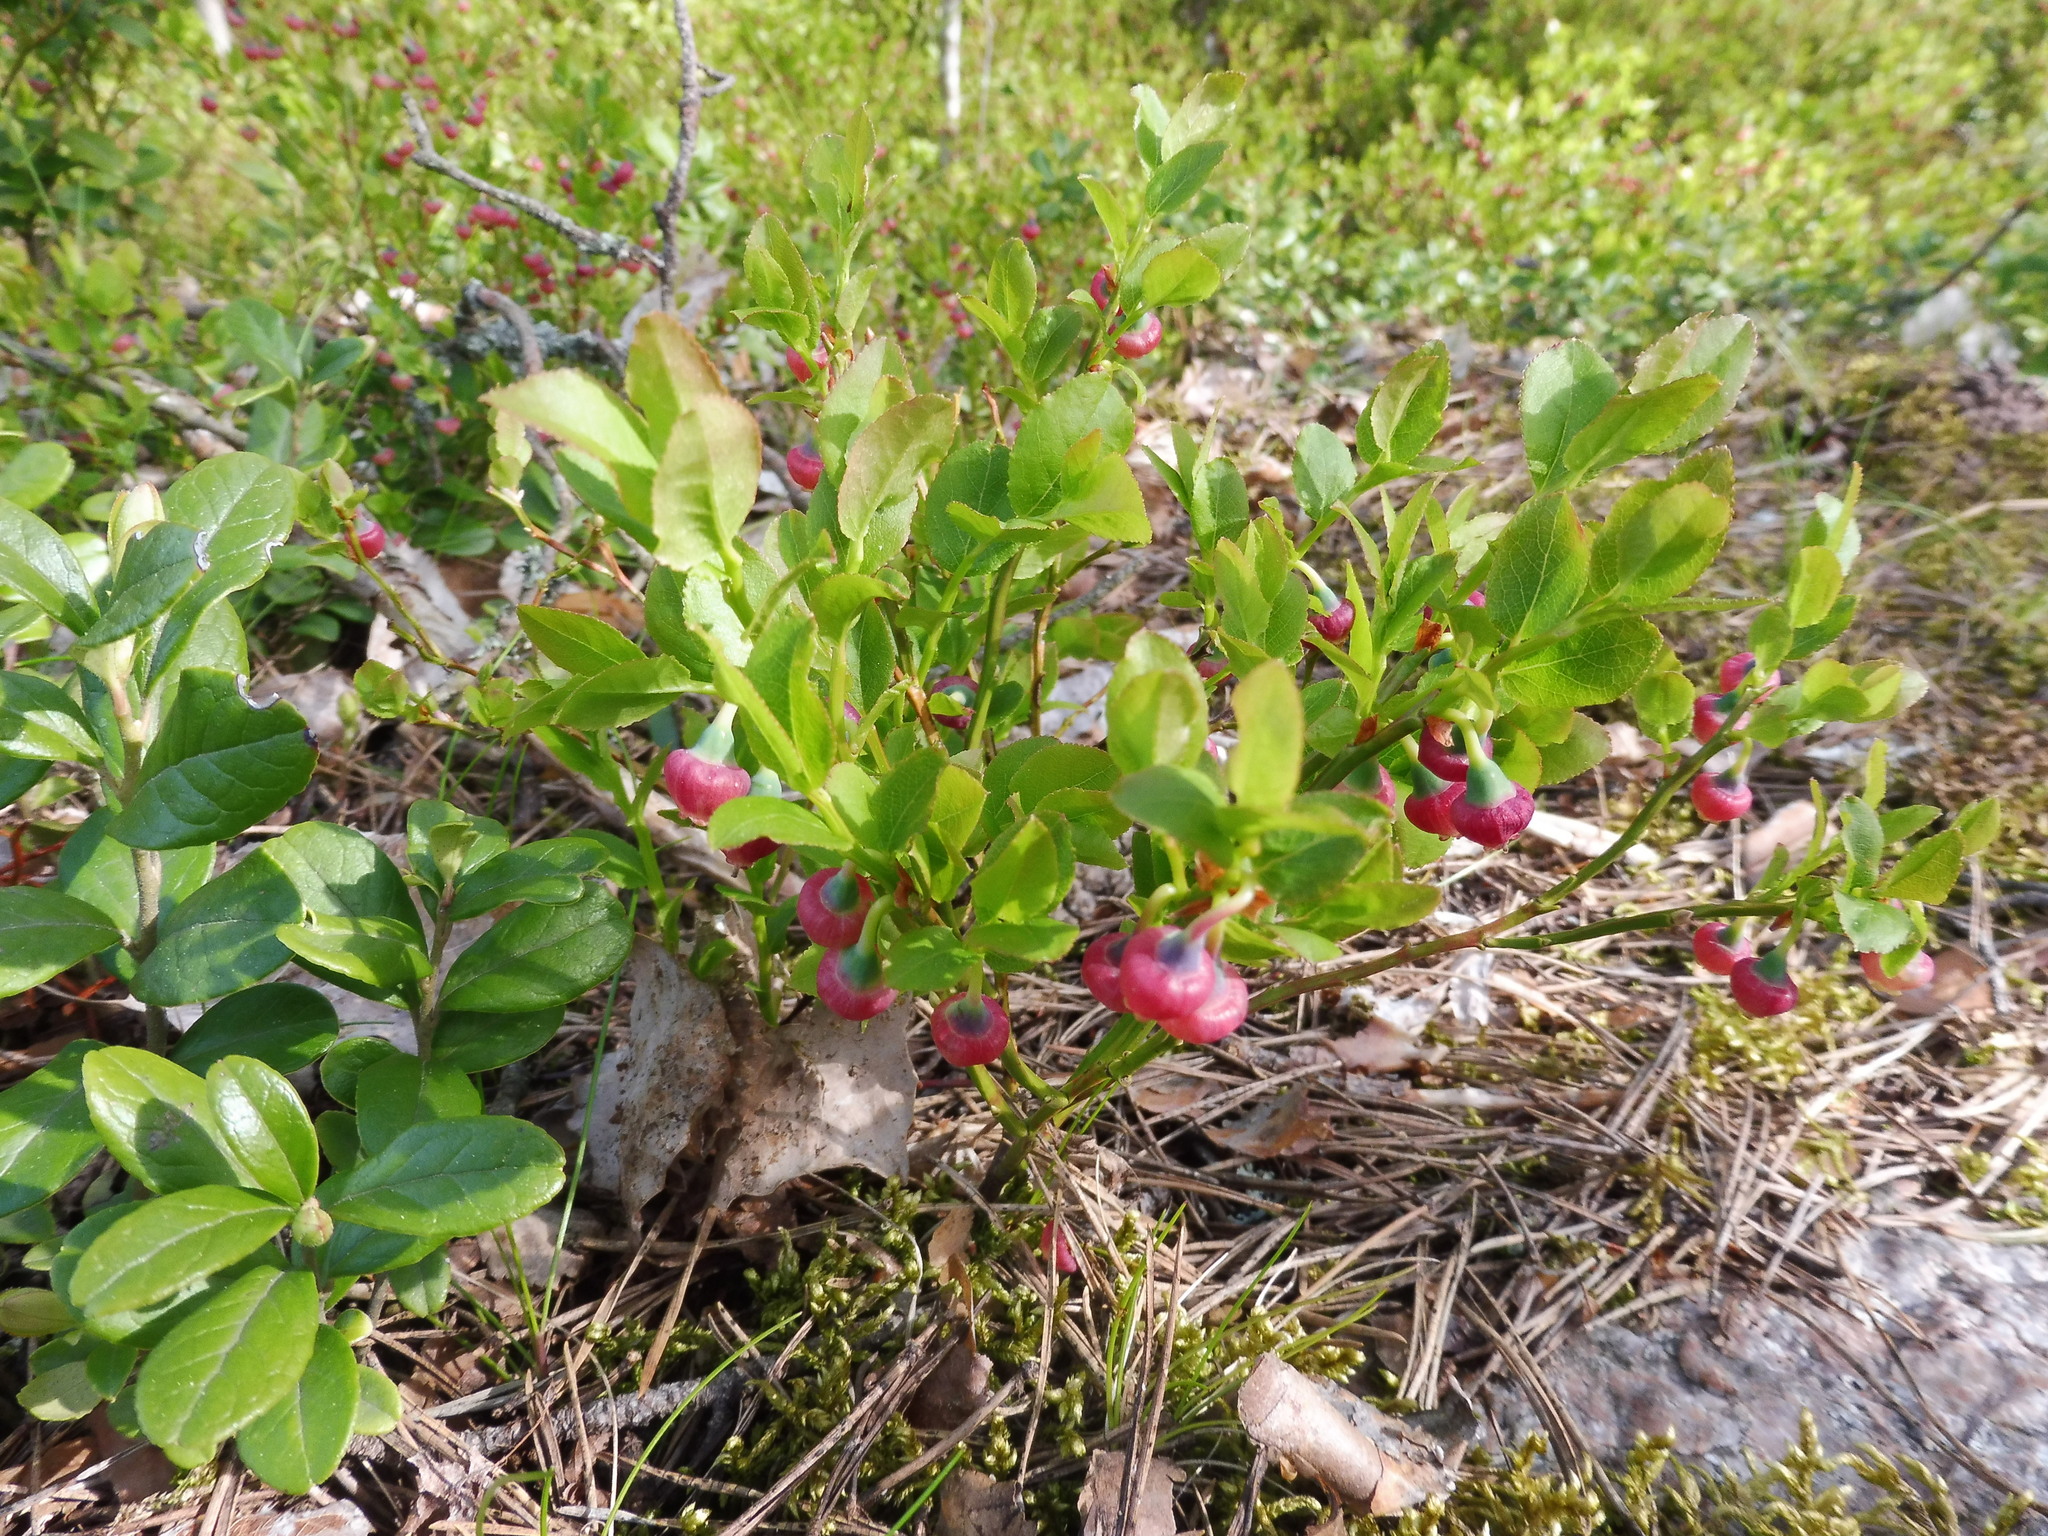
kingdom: Plantae
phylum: Tracheophyta
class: Magnoliopsida
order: Ericales
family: Ericaceae
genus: Vaccinium
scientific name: Vaccinium myrtillus
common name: Bilberry
